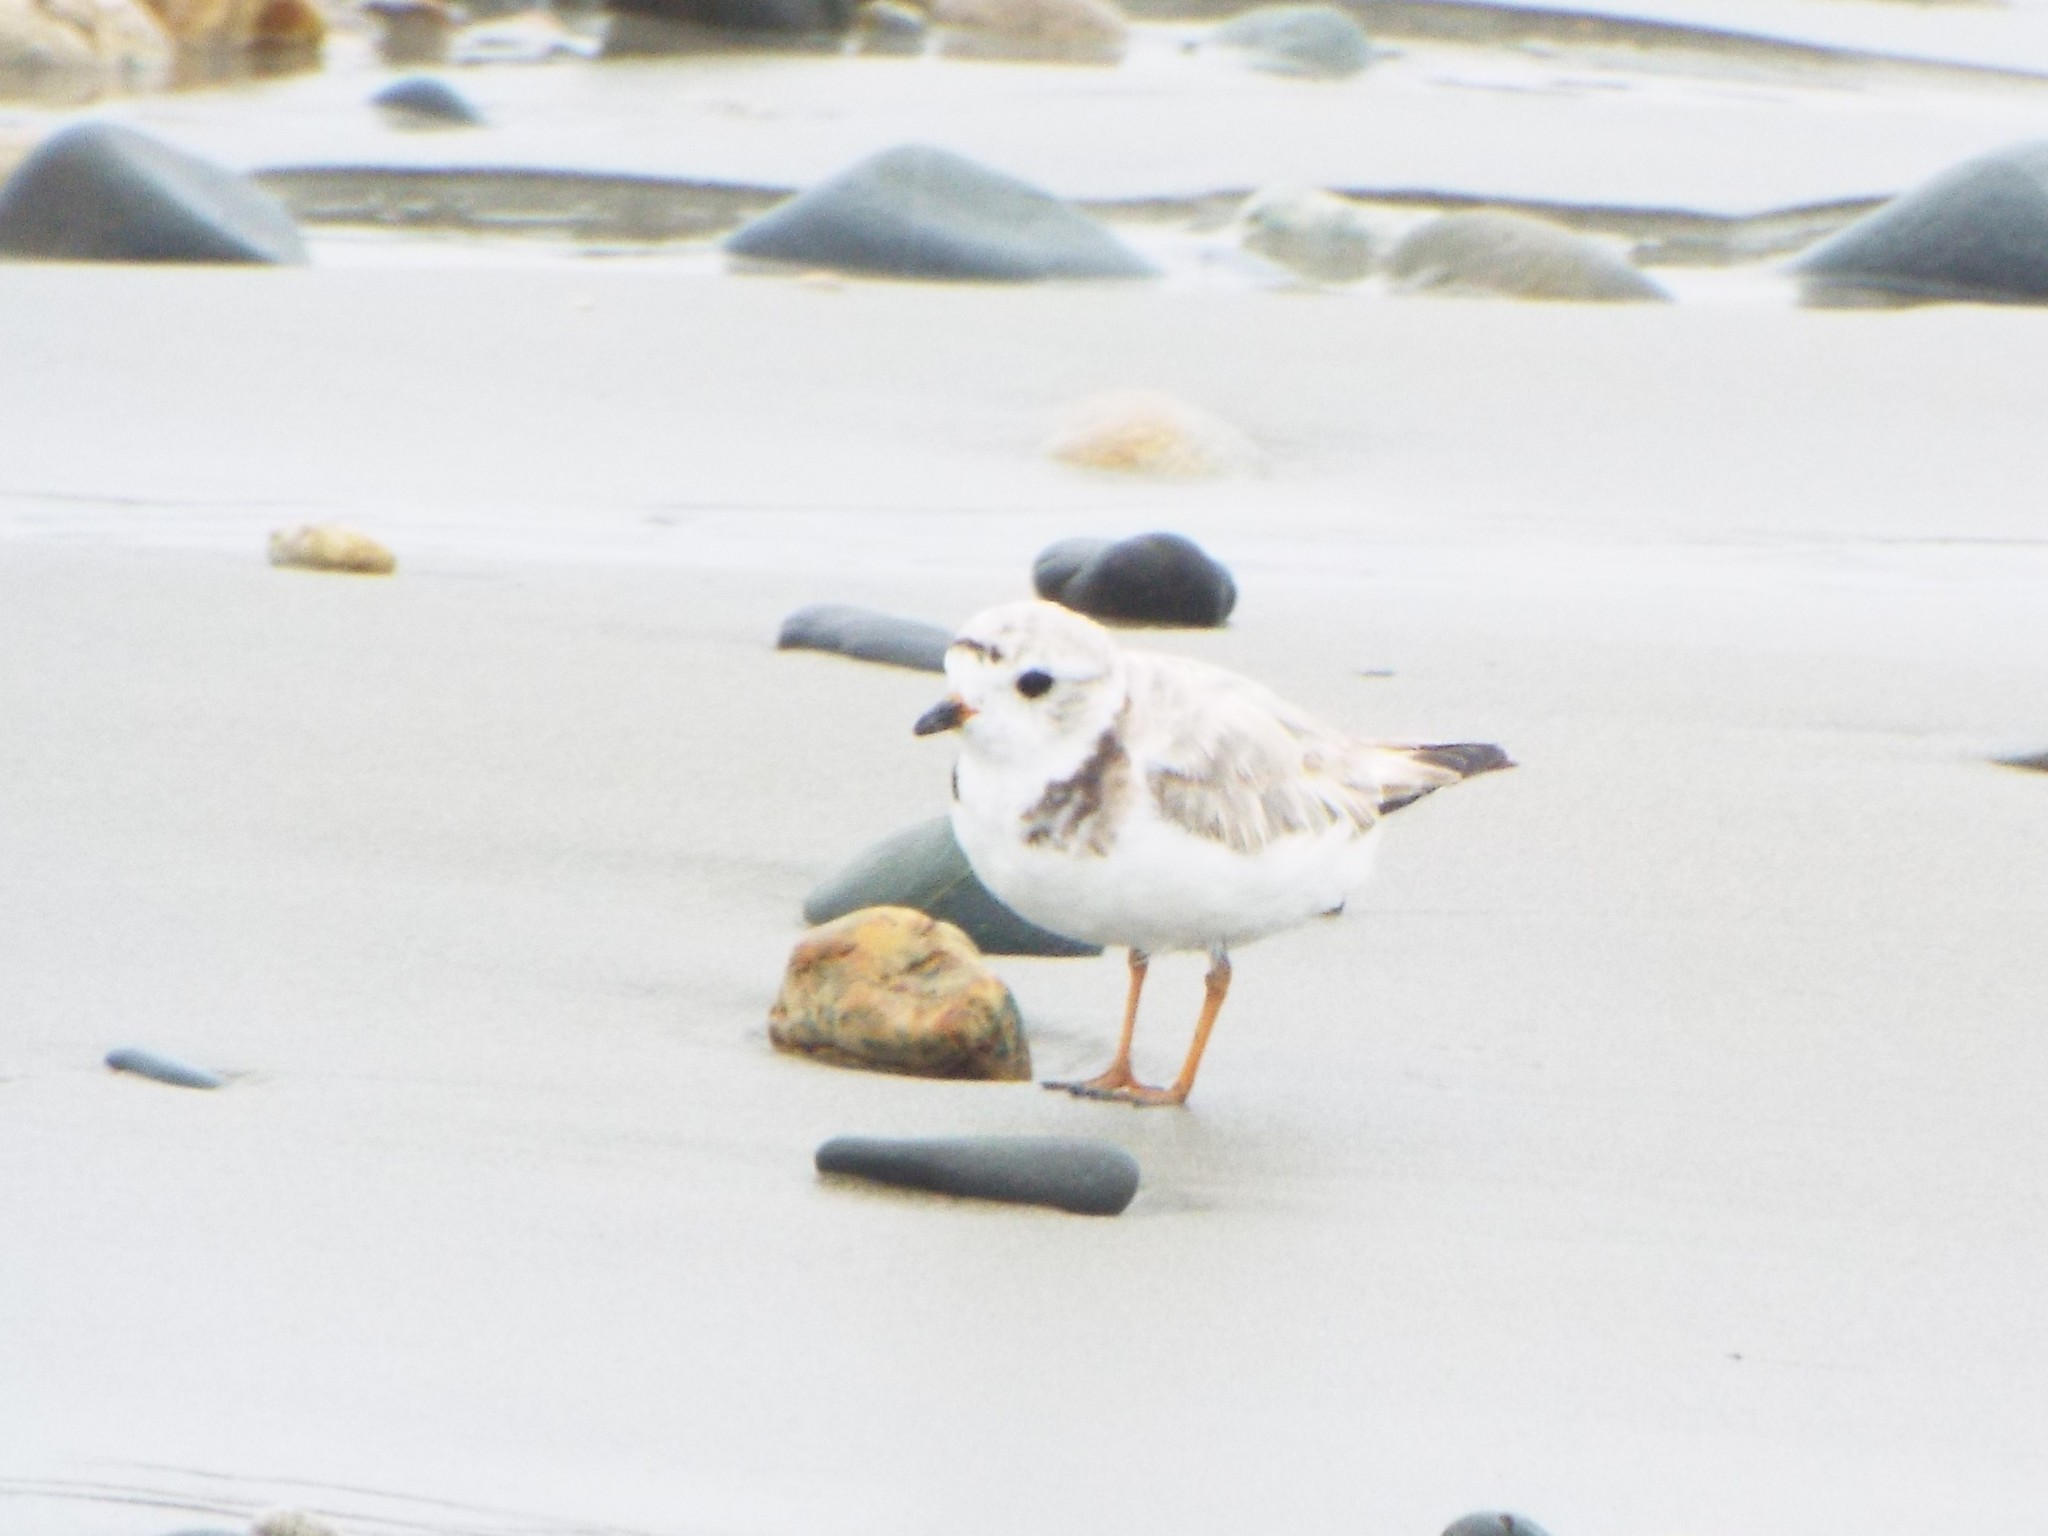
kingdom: Animalia
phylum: Chordata
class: Aves
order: Charadriiformes
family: Charadriidae
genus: Charadrius
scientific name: Charadrius melodus
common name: Piping plover
